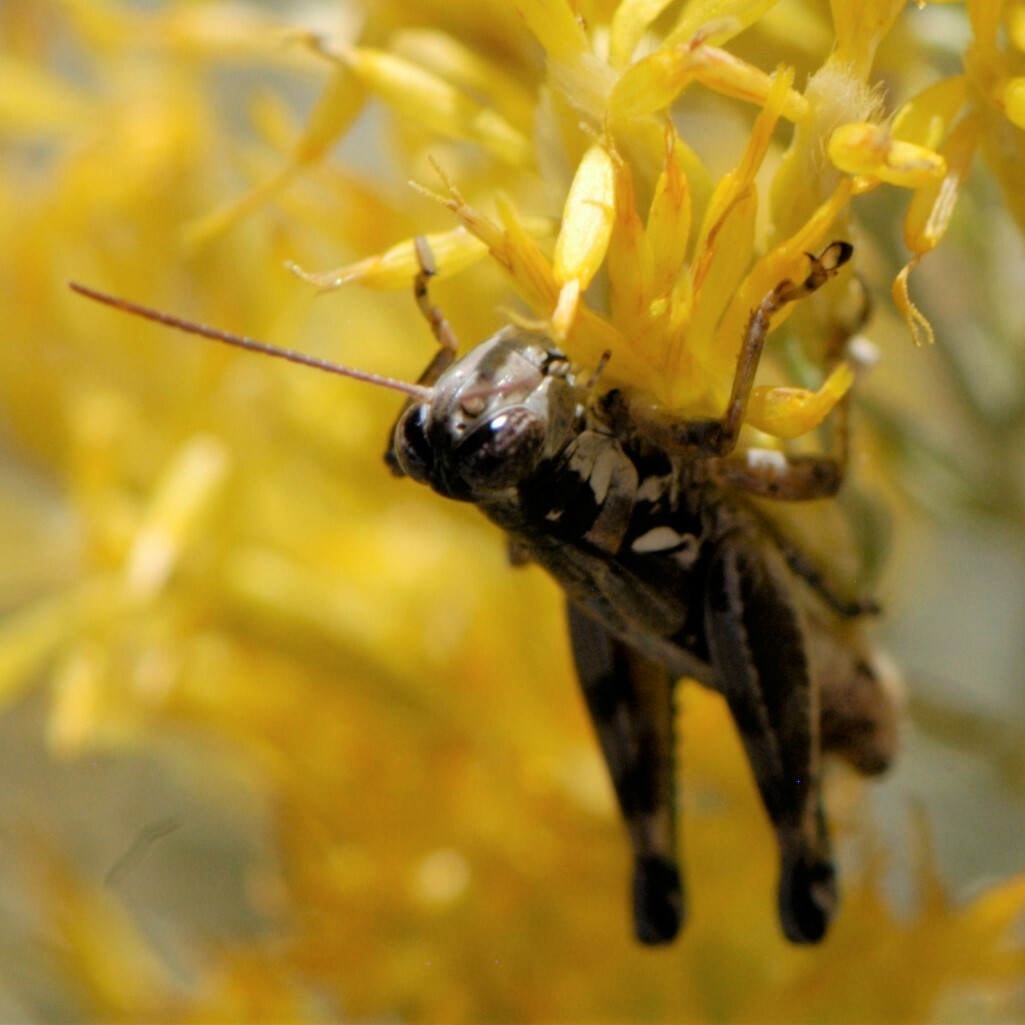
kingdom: Animalia
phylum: Arthropoda
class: Insecta
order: Orthoptera
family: Acrididae
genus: Melanoplus
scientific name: Melanoplus aridus
